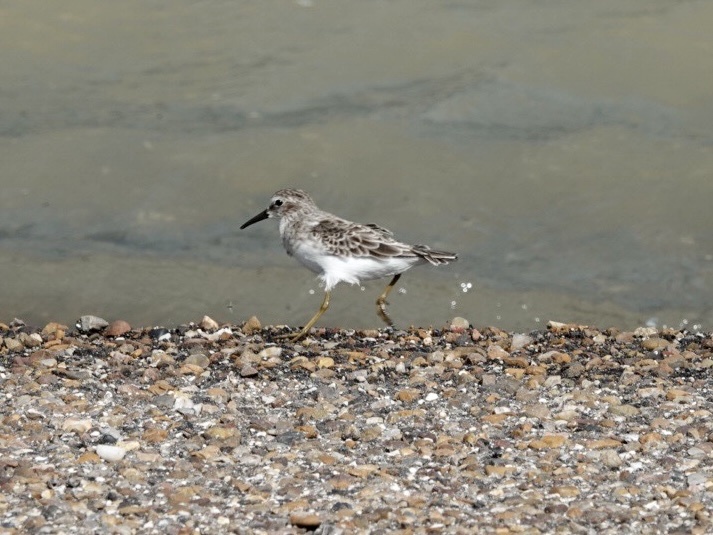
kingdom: Animalia
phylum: Chordata
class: Aves
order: Charadriiformes
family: Scolopacidae
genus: Calidris
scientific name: Calidris minutilla
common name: Least sandpiper
